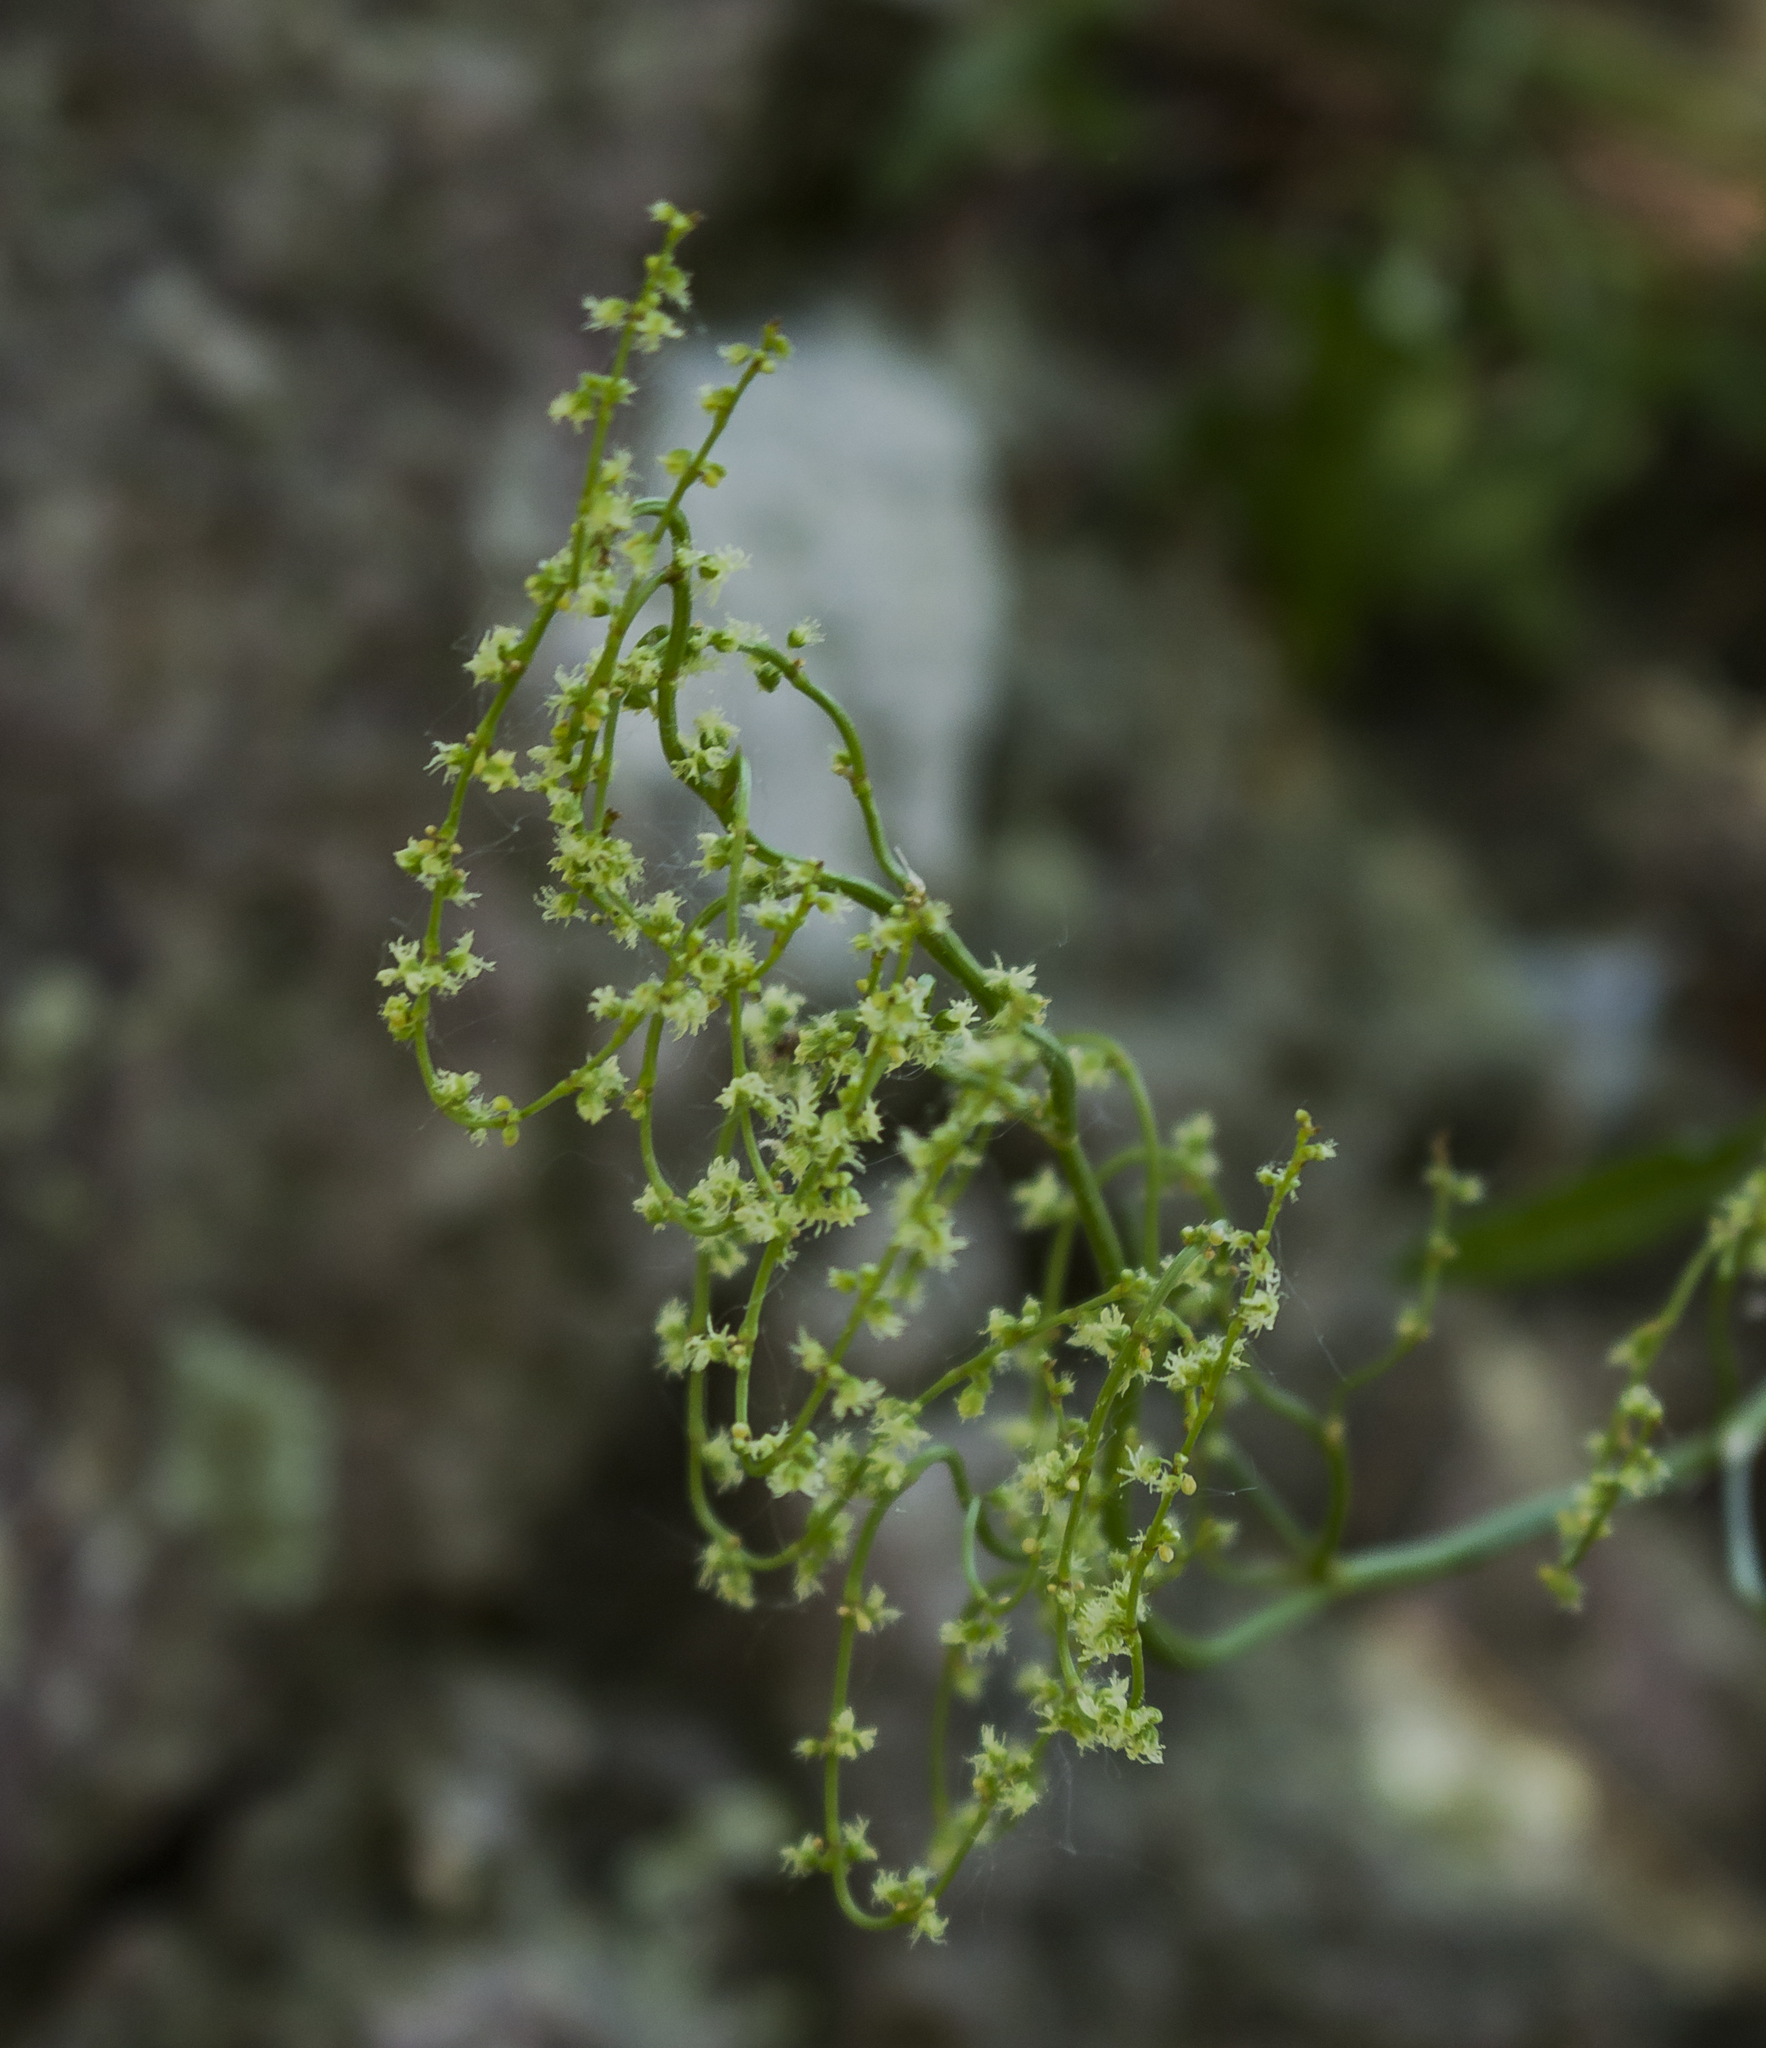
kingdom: Plantae
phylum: Tracheophyta
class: Magnoliopsida
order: Caryophyllales
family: Polygonaceae
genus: Rumex
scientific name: Rumex acetosella
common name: Common sheep sorrel
